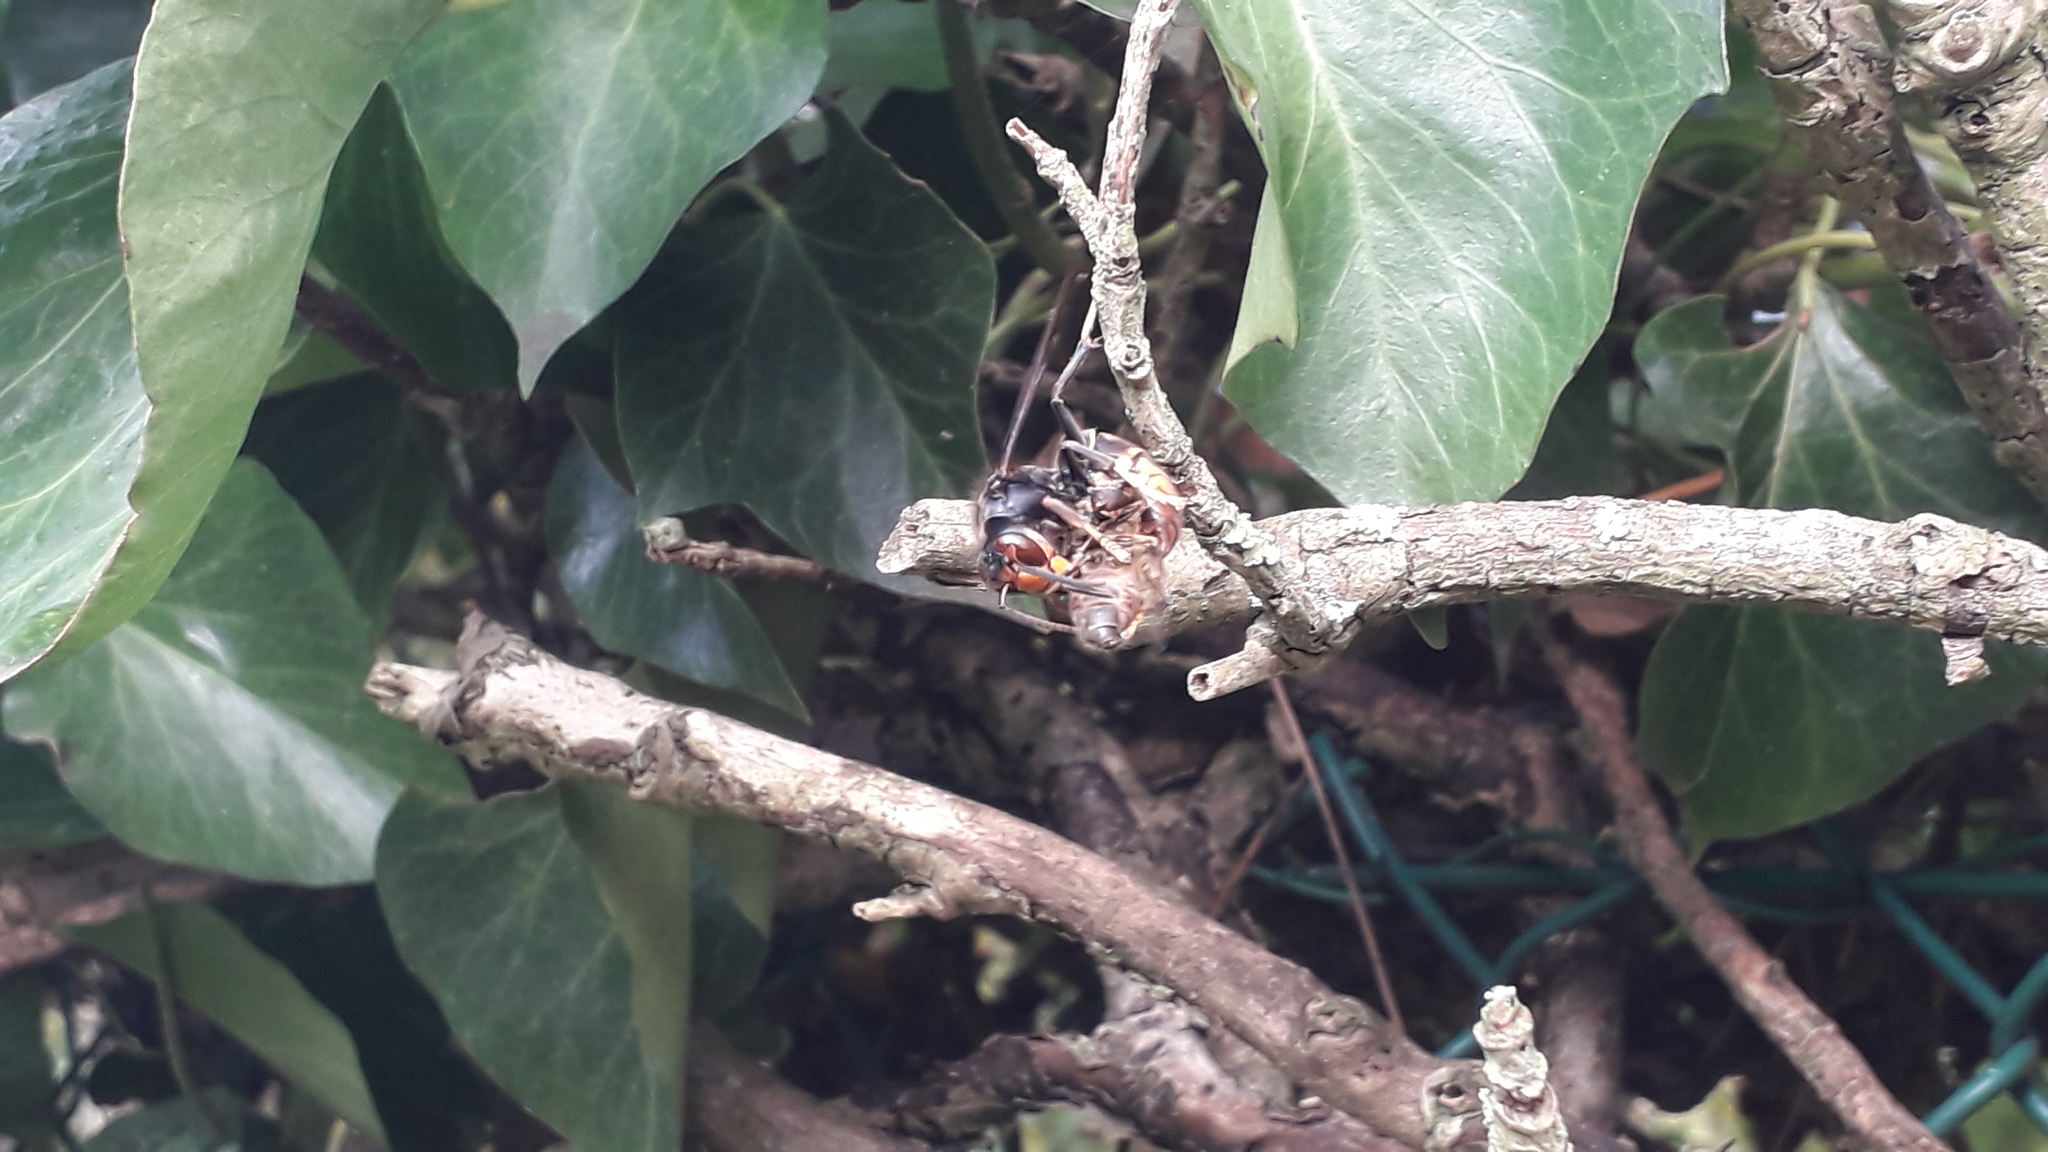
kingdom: Animalia
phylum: Arthropoda
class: Insecta
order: Hymenoptera
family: Vespidae
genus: Vespa
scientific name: Vespa velutina
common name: Asian hornet
